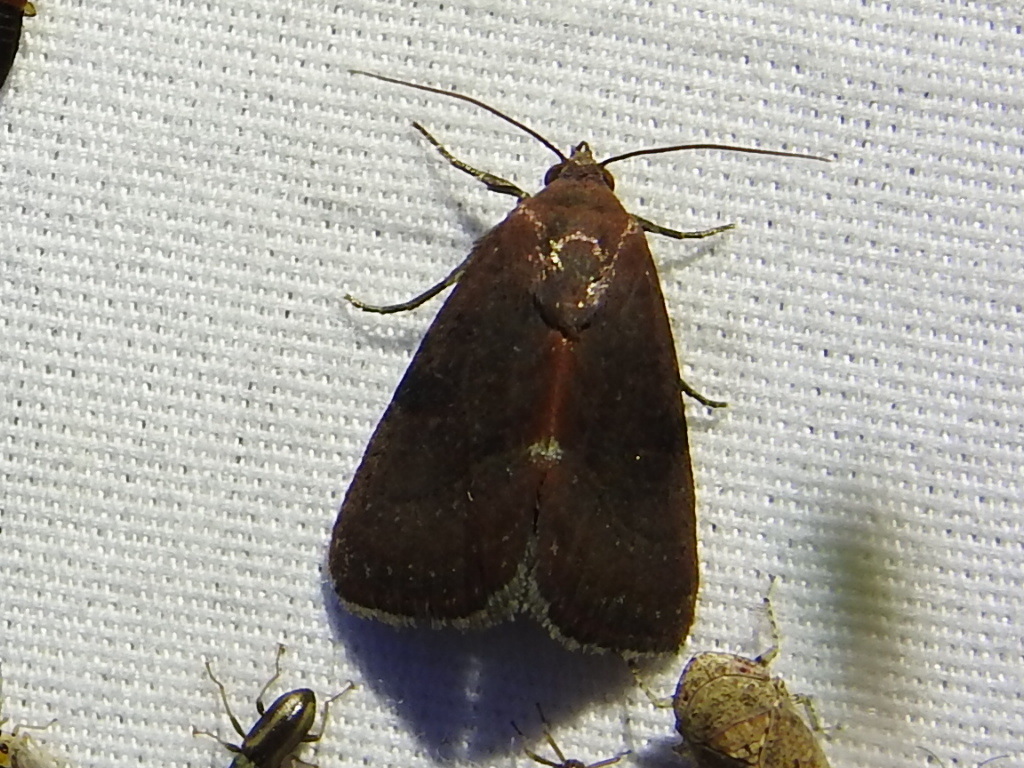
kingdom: Animalia
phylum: Arthropoda
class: Insecta
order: Lepidoptera
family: Noctuidae
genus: Galgula
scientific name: Galgula partita
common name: Wedgeling
